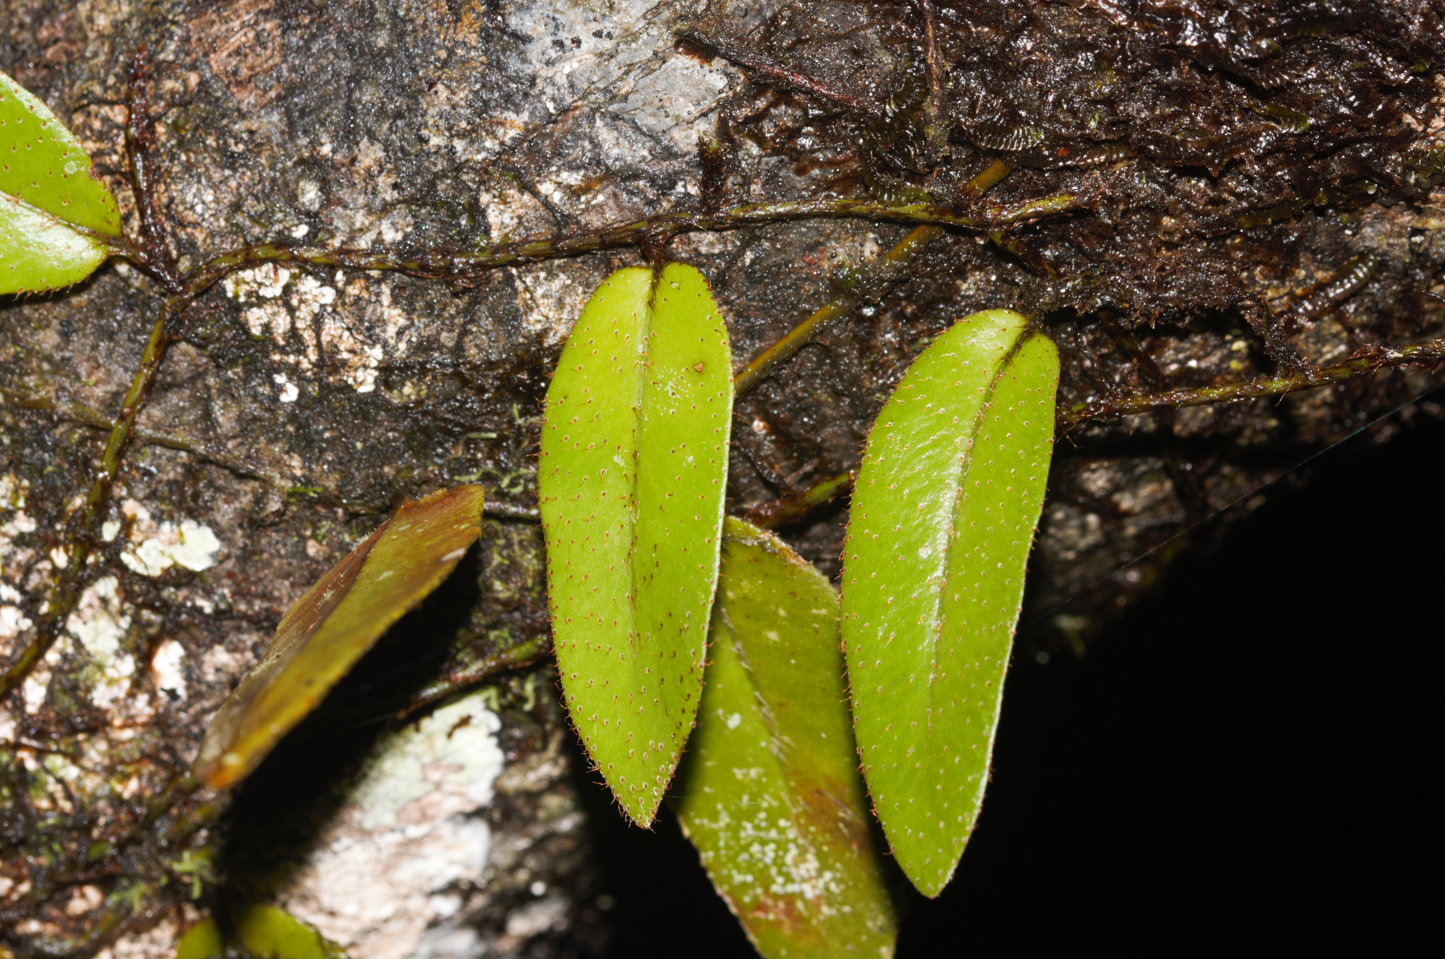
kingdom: Plantae
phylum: Tracheophyta
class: Polypodiopsida
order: Polypodiales
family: Polypodiaceae
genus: Microgramma
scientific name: Microgramma reptans
